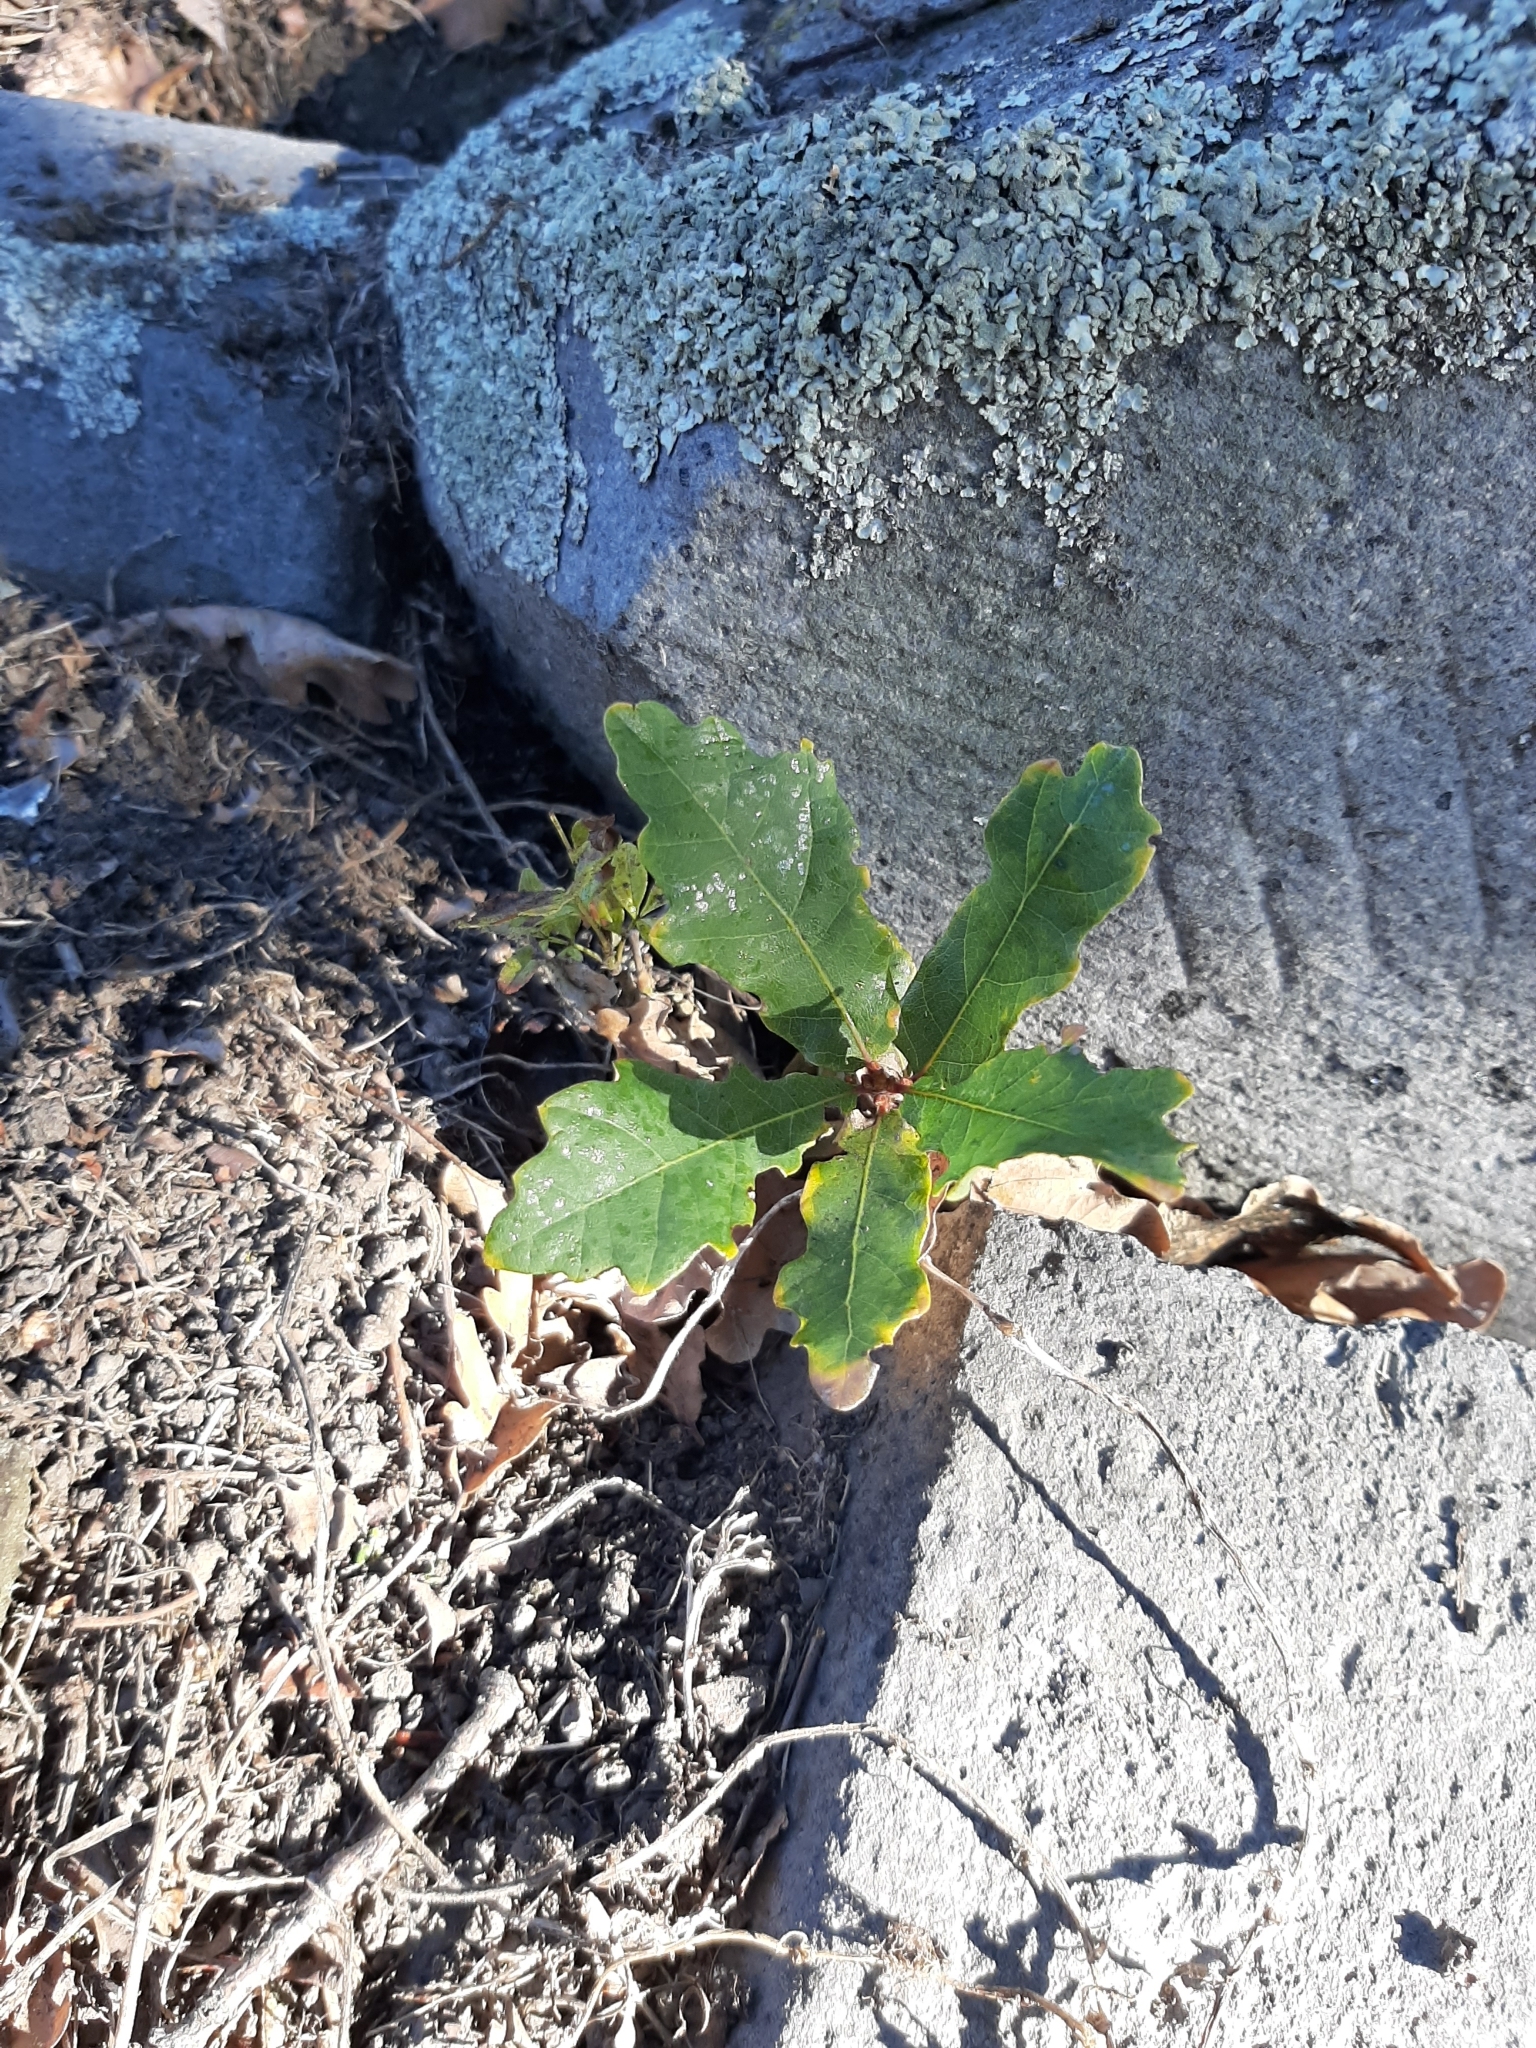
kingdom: Plantae
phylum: Tracheophyta
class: Magnoliopsida
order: Fagales
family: Fagaceae
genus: Quercus
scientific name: Quercus robur
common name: Pedunculate oak
